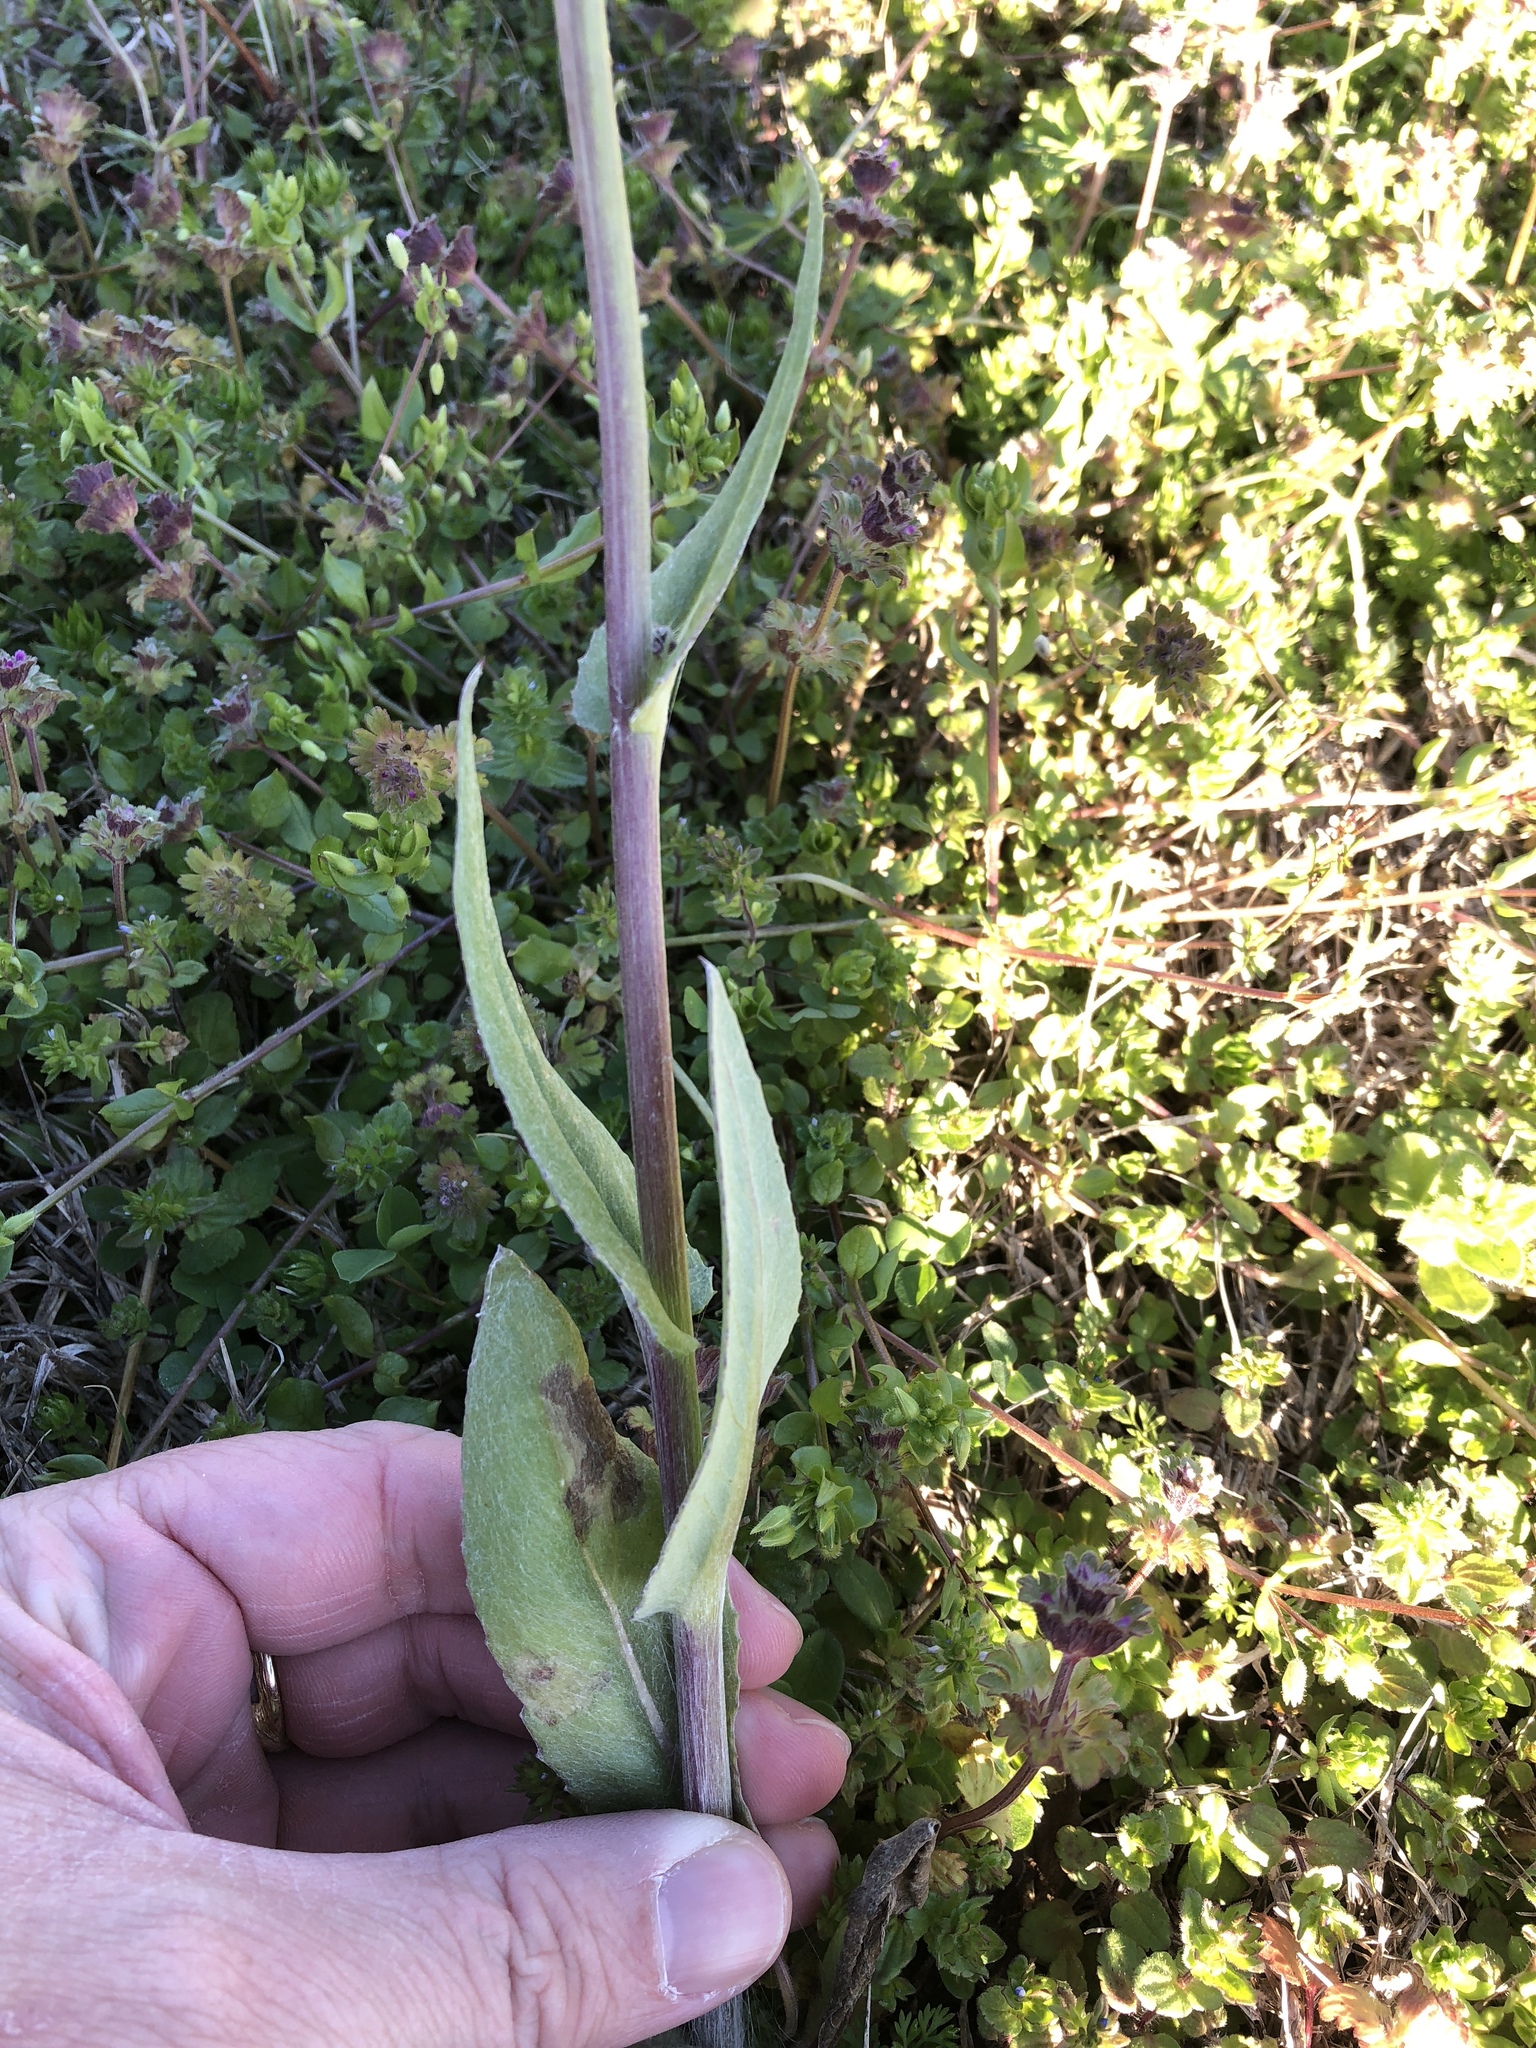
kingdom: Plantae
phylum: Tracheophyta
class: Magnoliopsida
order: Asterales
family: Asteraceae
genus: Senecio
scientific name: Senecio ampullaceus
